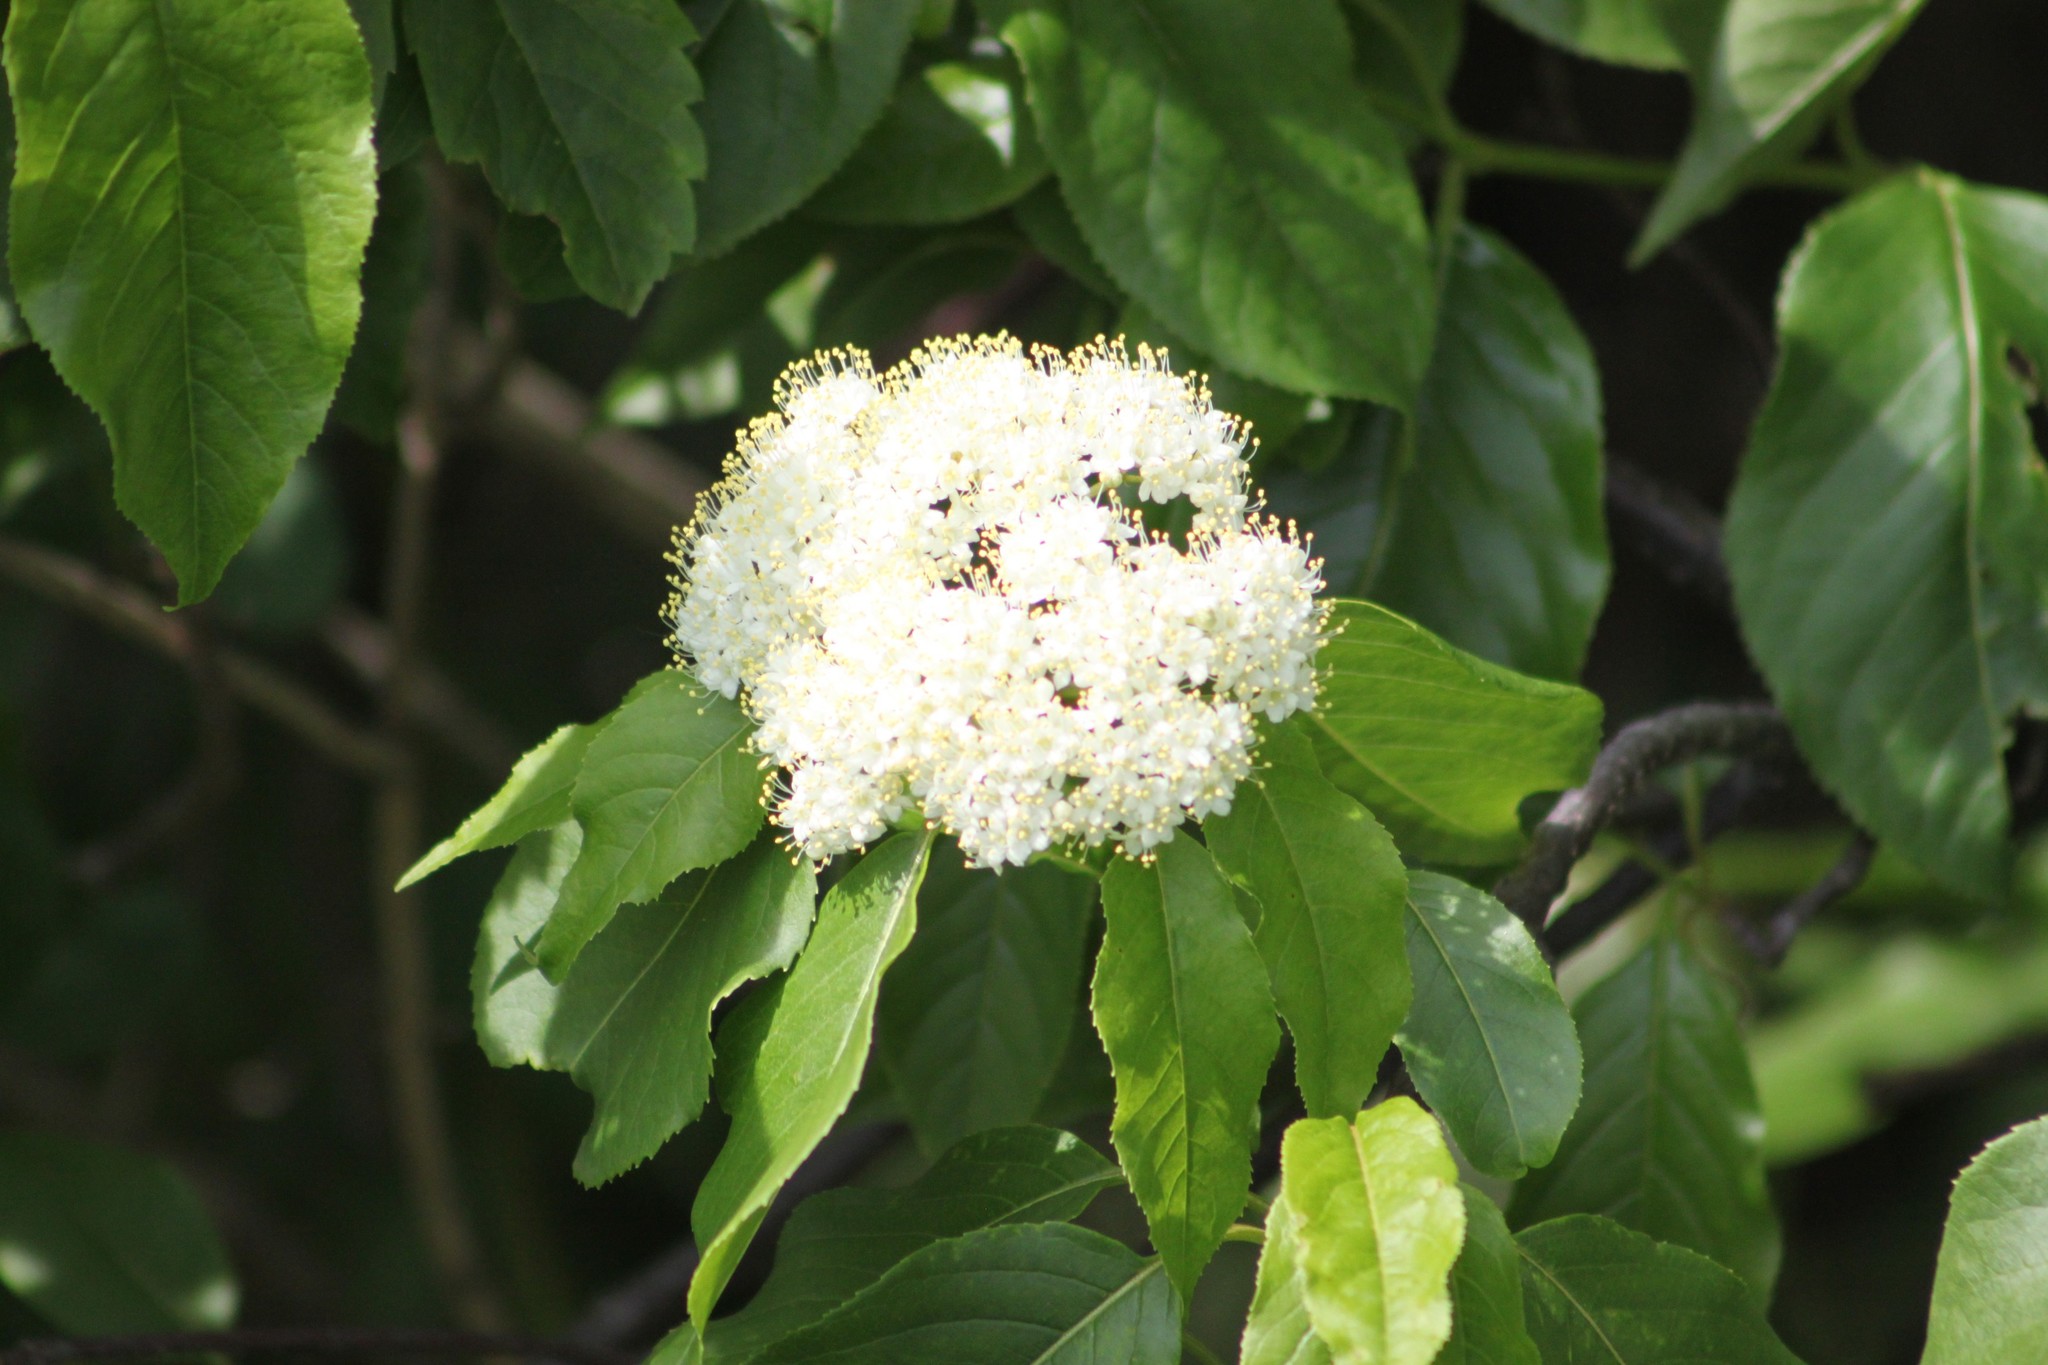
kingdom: Plantae
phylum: Tracheophyta
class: Magnoliopsida
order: Dipsacales
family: Viburnaceae
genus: Viburnum
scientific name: Viburnum lentago
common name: Black haw
